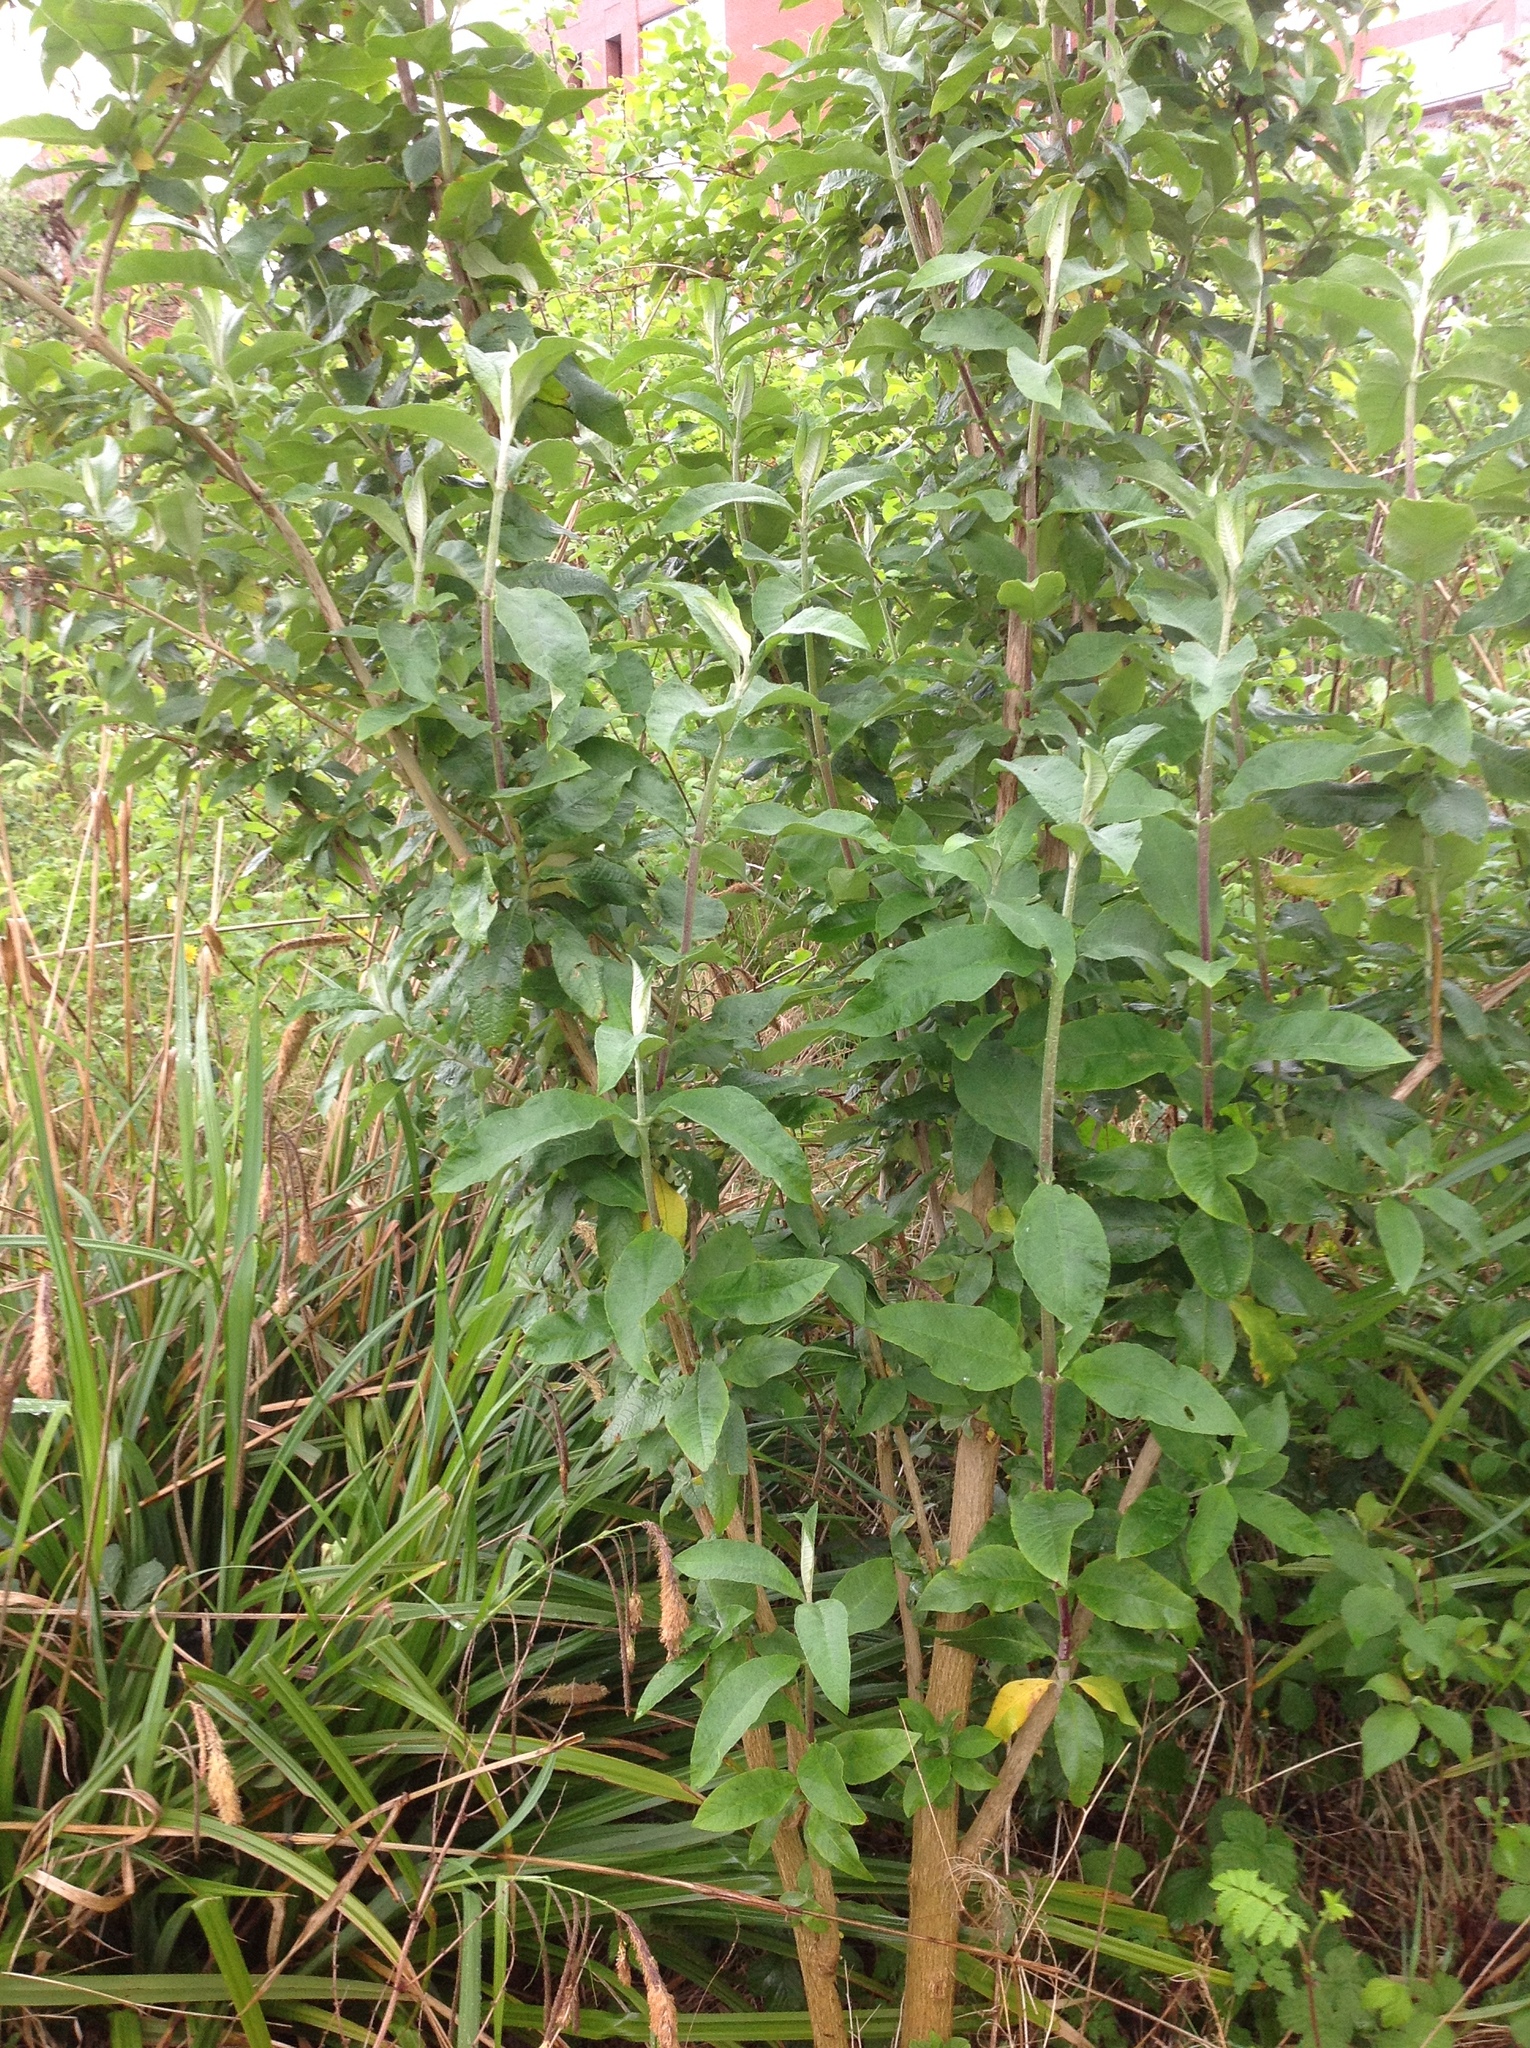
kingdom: Plantae
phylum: Tracheophyta
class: Magnoliopsida
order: Lamiales
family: Scrophulariaceae
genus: Buddleja
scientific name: Buddleja davidii
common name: Butterfly-bush
